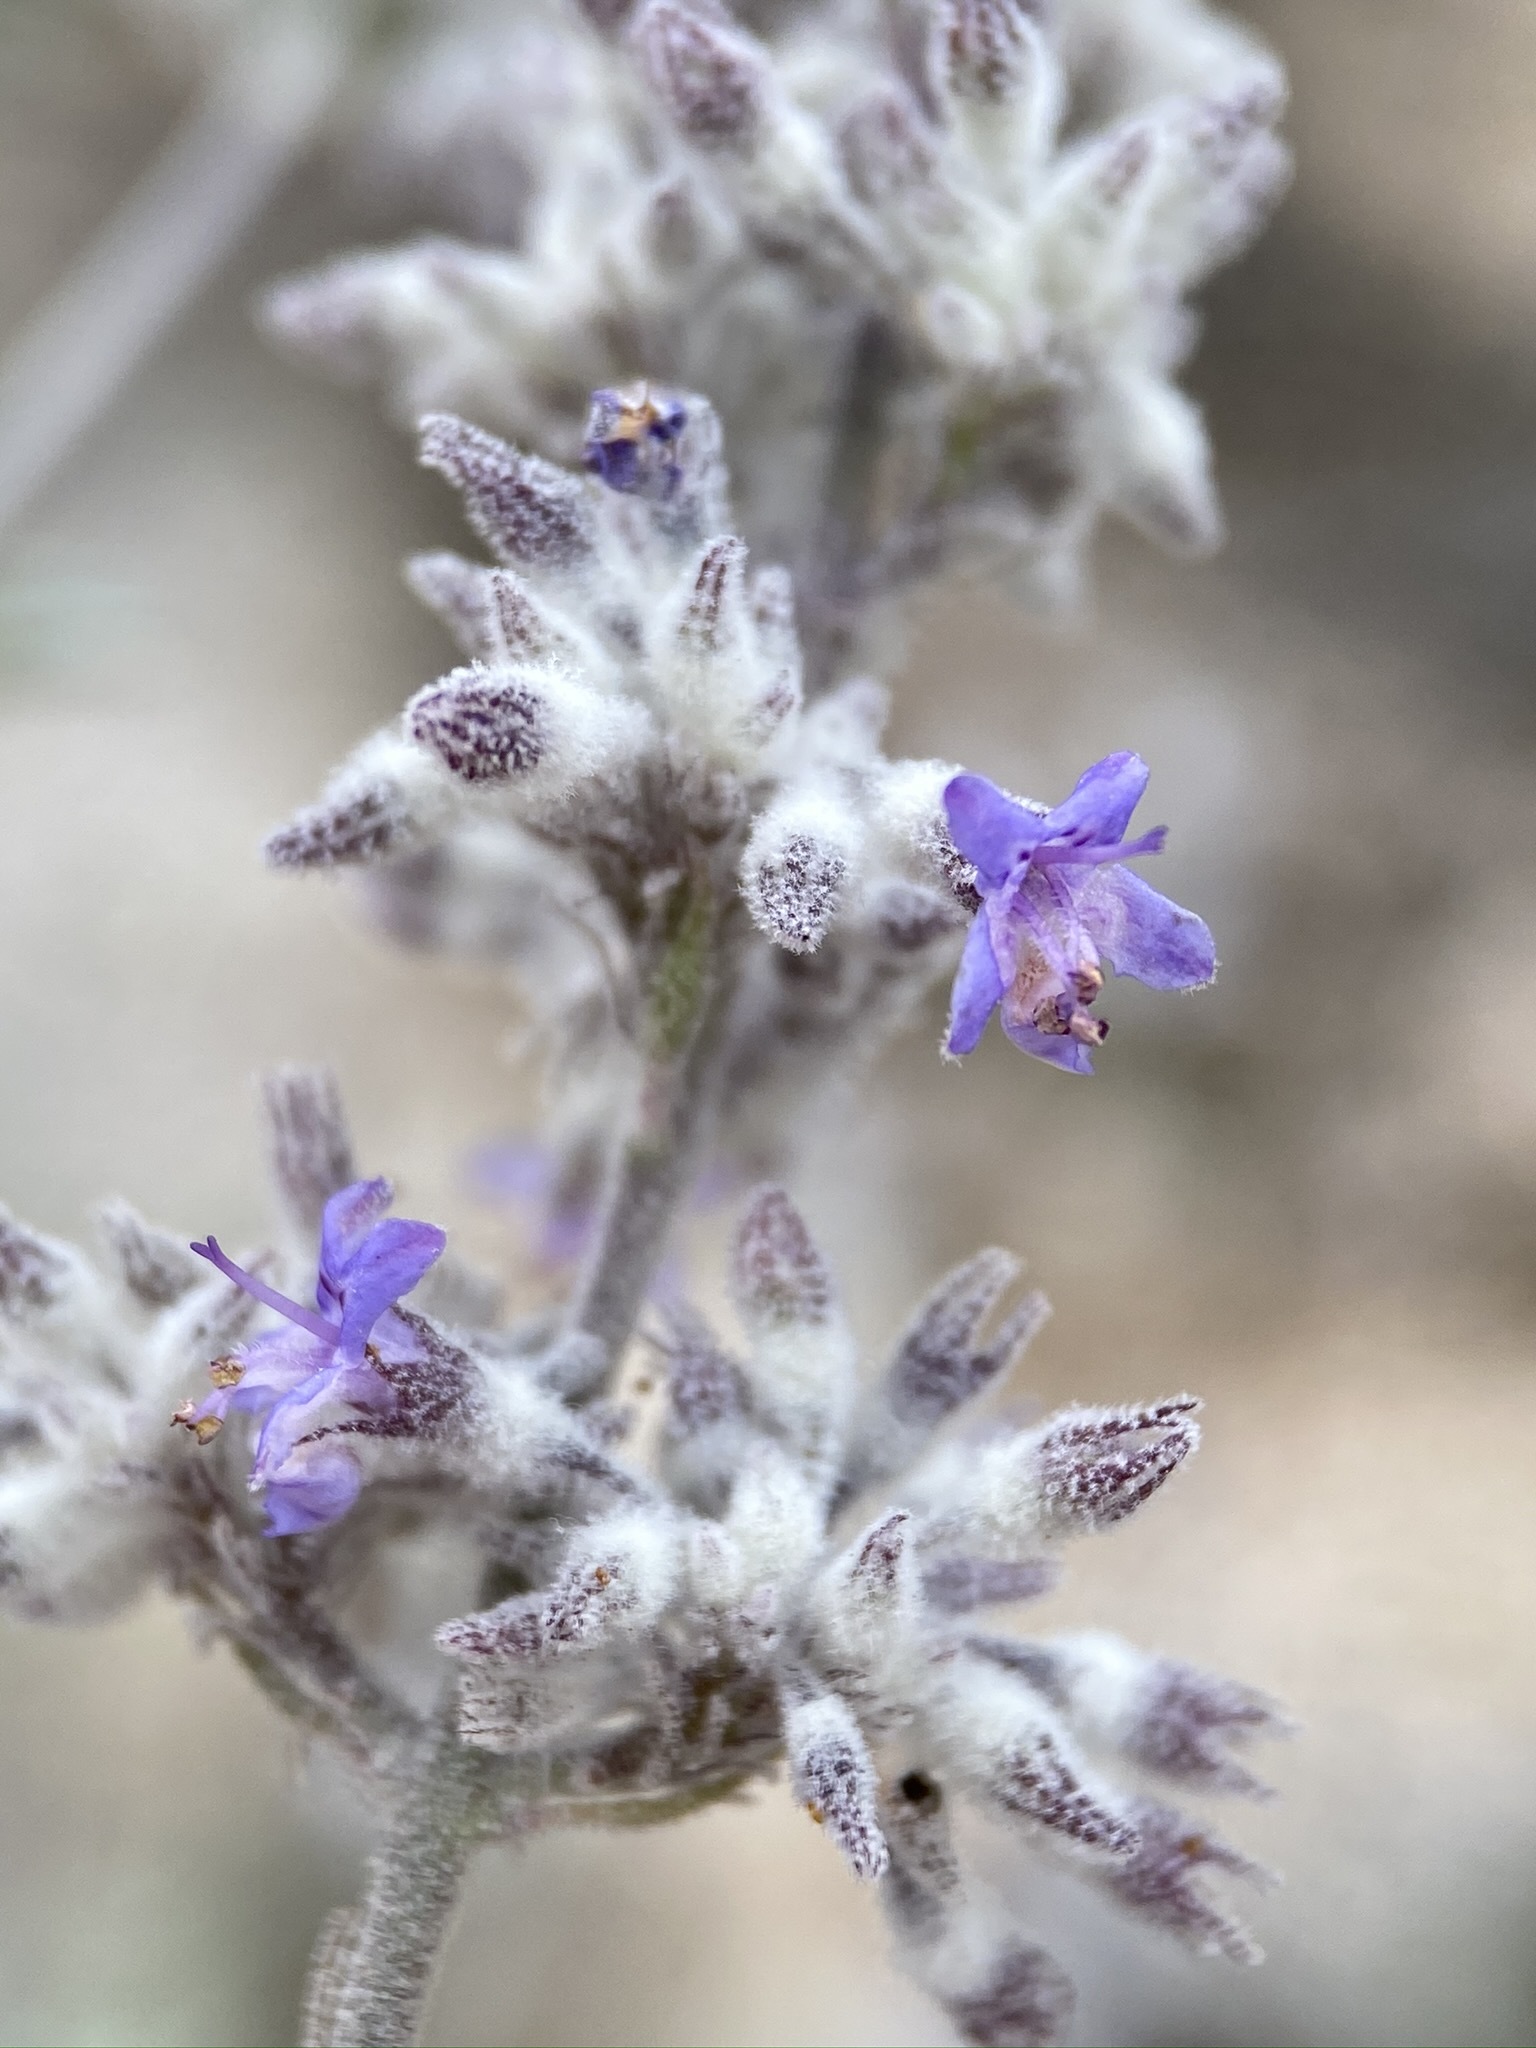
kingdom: Plantae
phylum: Tracheophyta
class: Magnoliopsida
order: Lamiales
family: Lamiaceae
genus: Condea
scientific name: Condea emoryi
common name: Chia
